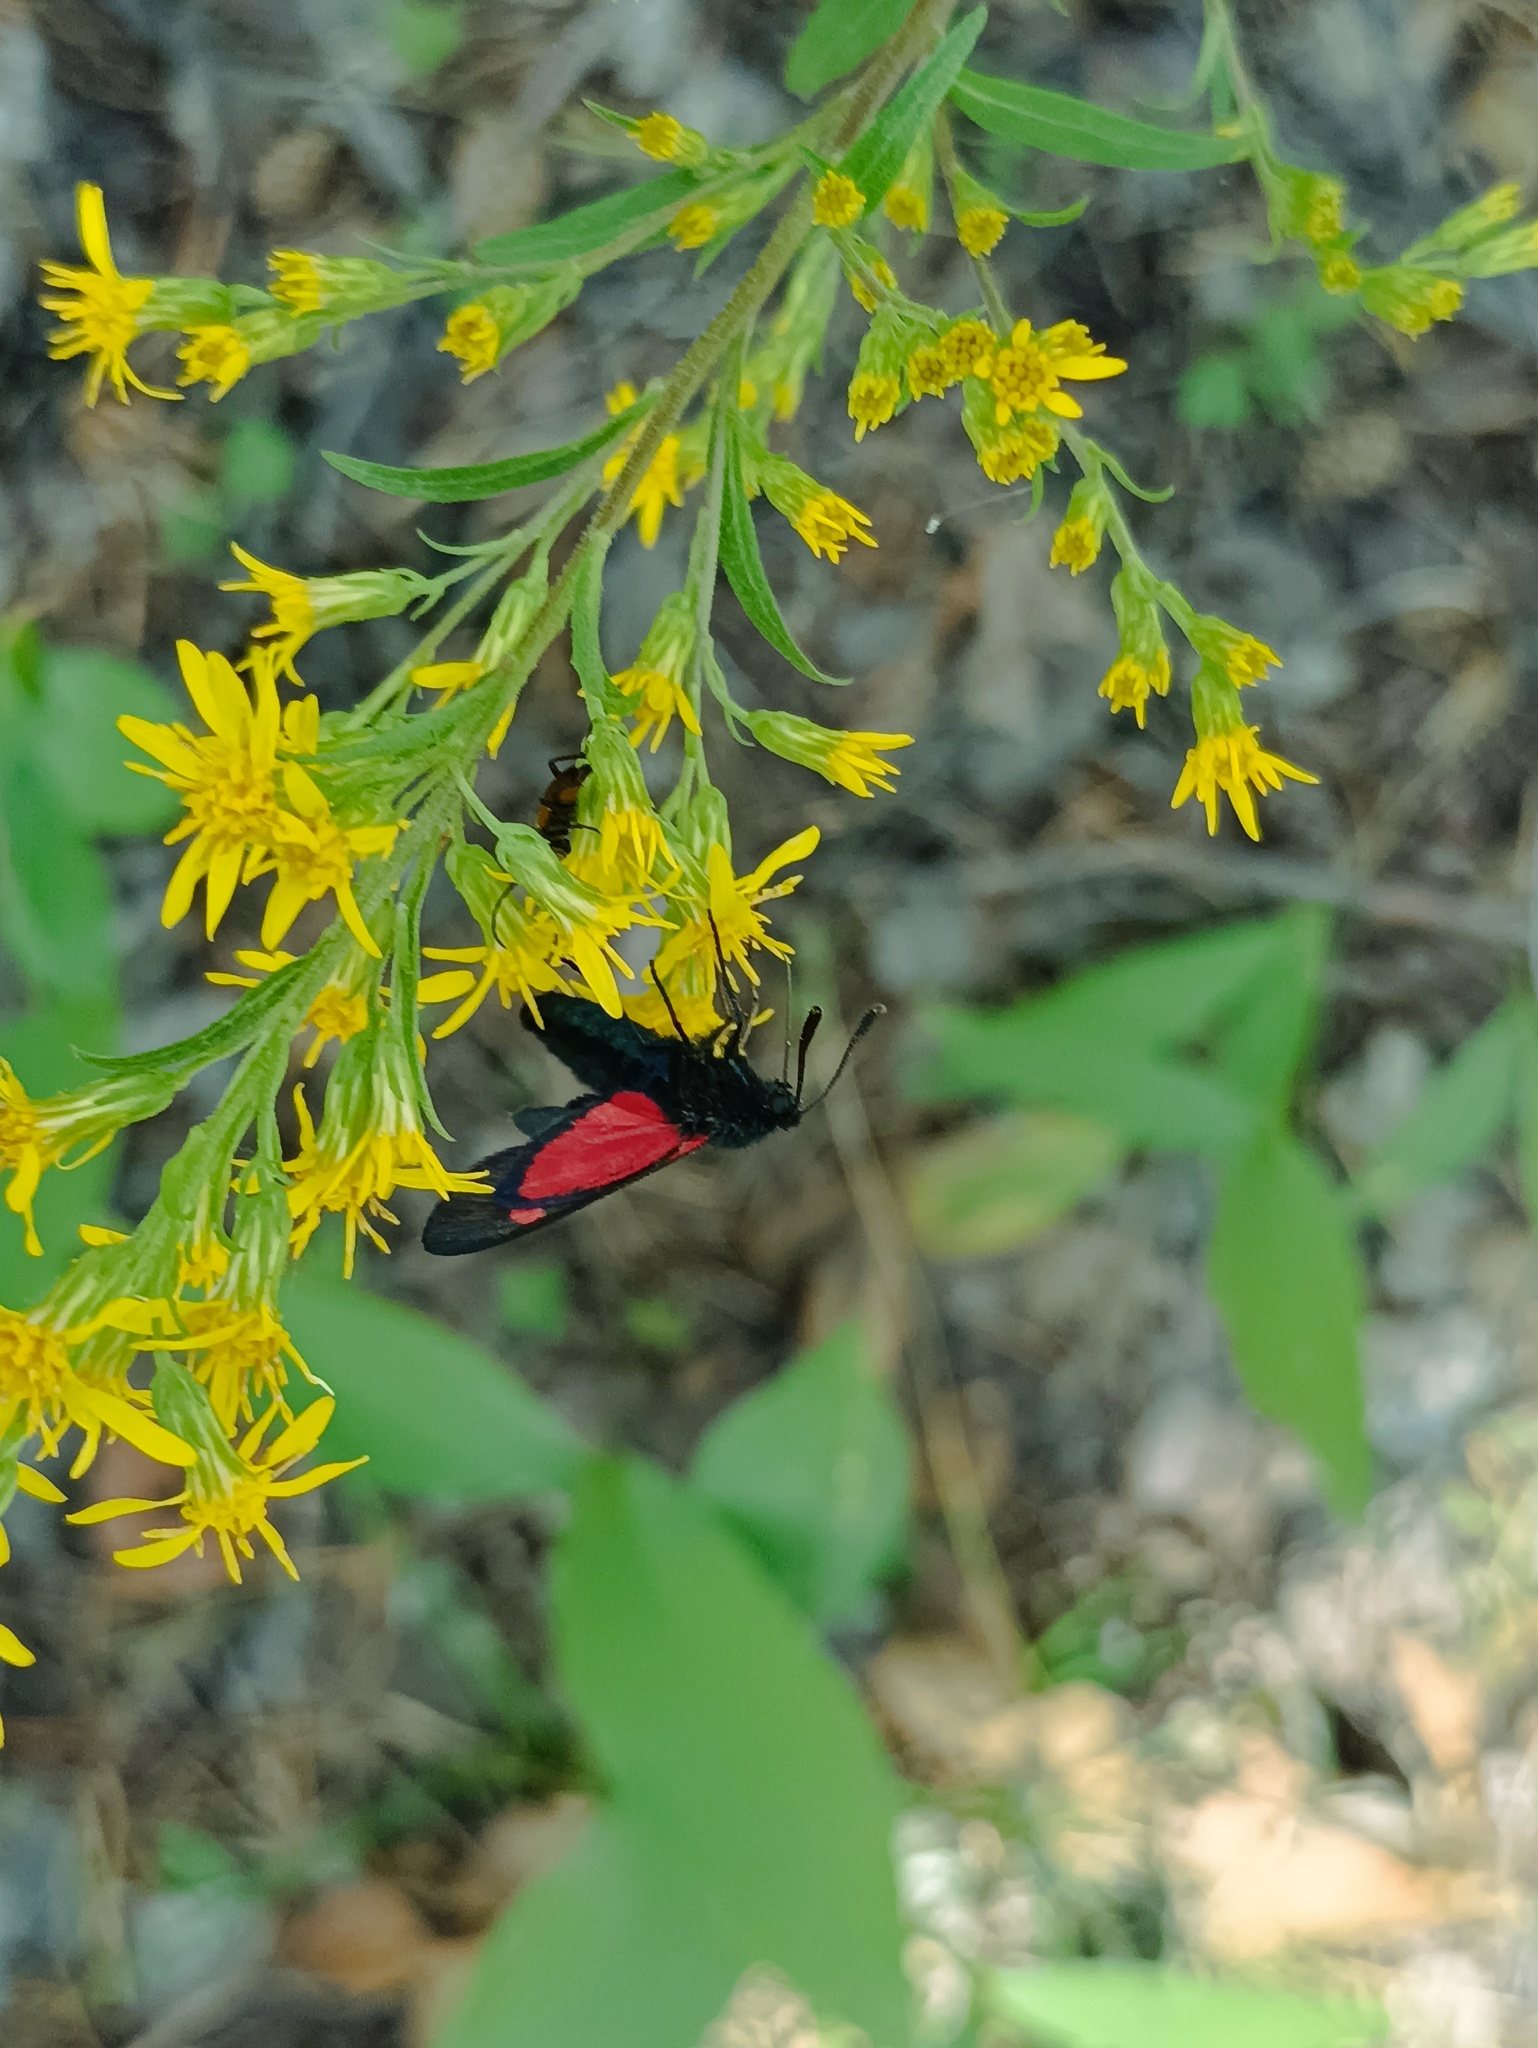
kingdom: Animalia
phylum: Arthropoda
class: Insecta
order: Lepidoptera
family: Zygaenidae
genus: Zygaena
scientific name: Zygaena lonicerae
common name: Narrow-bordered five-spot burnet
